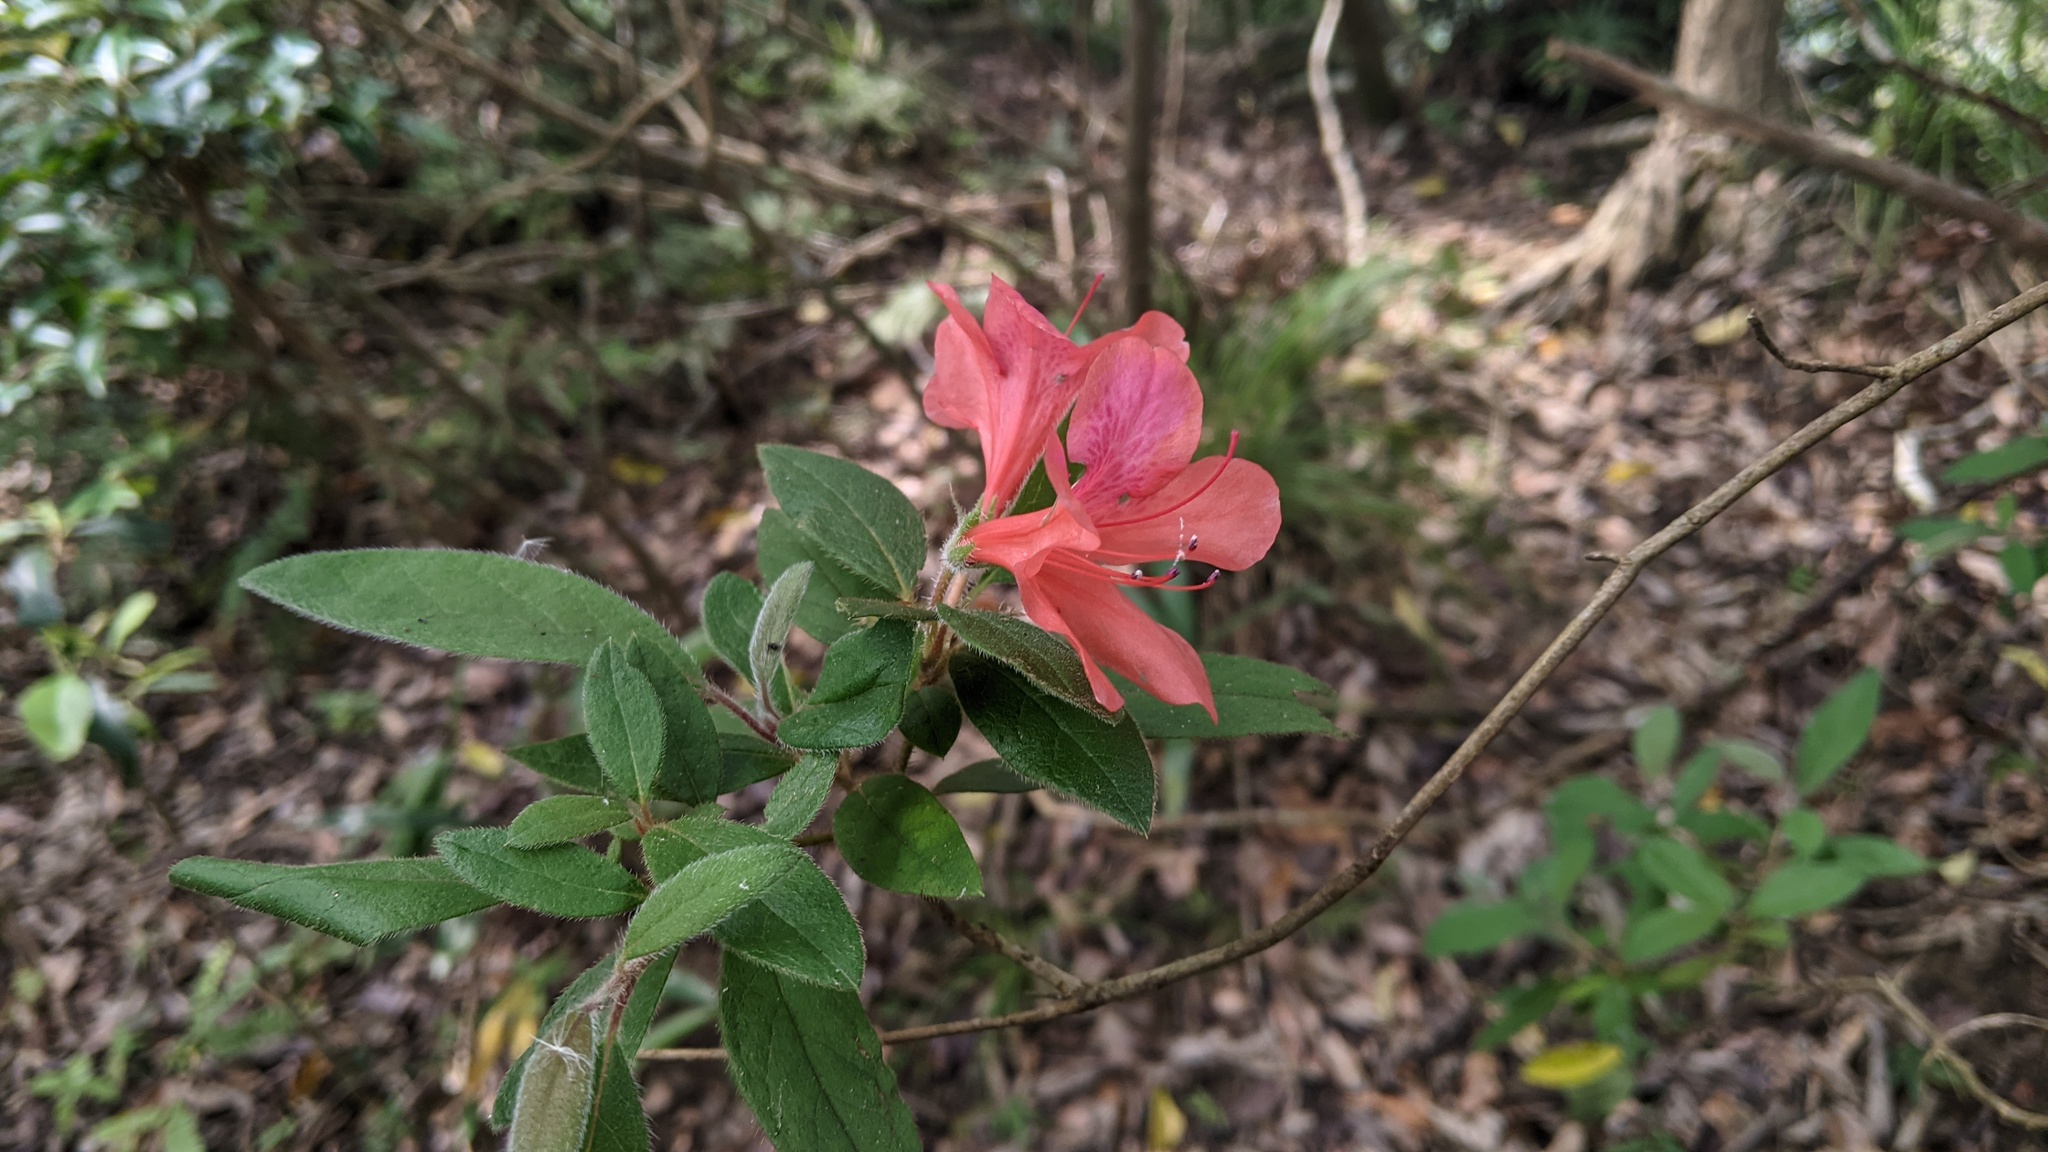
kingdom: Plantae
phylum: Tracheophyta
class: Magnoliopsida
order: Ericales
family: Ericaceae
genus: Rhododendron
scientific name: Rhododendron oldhamii
